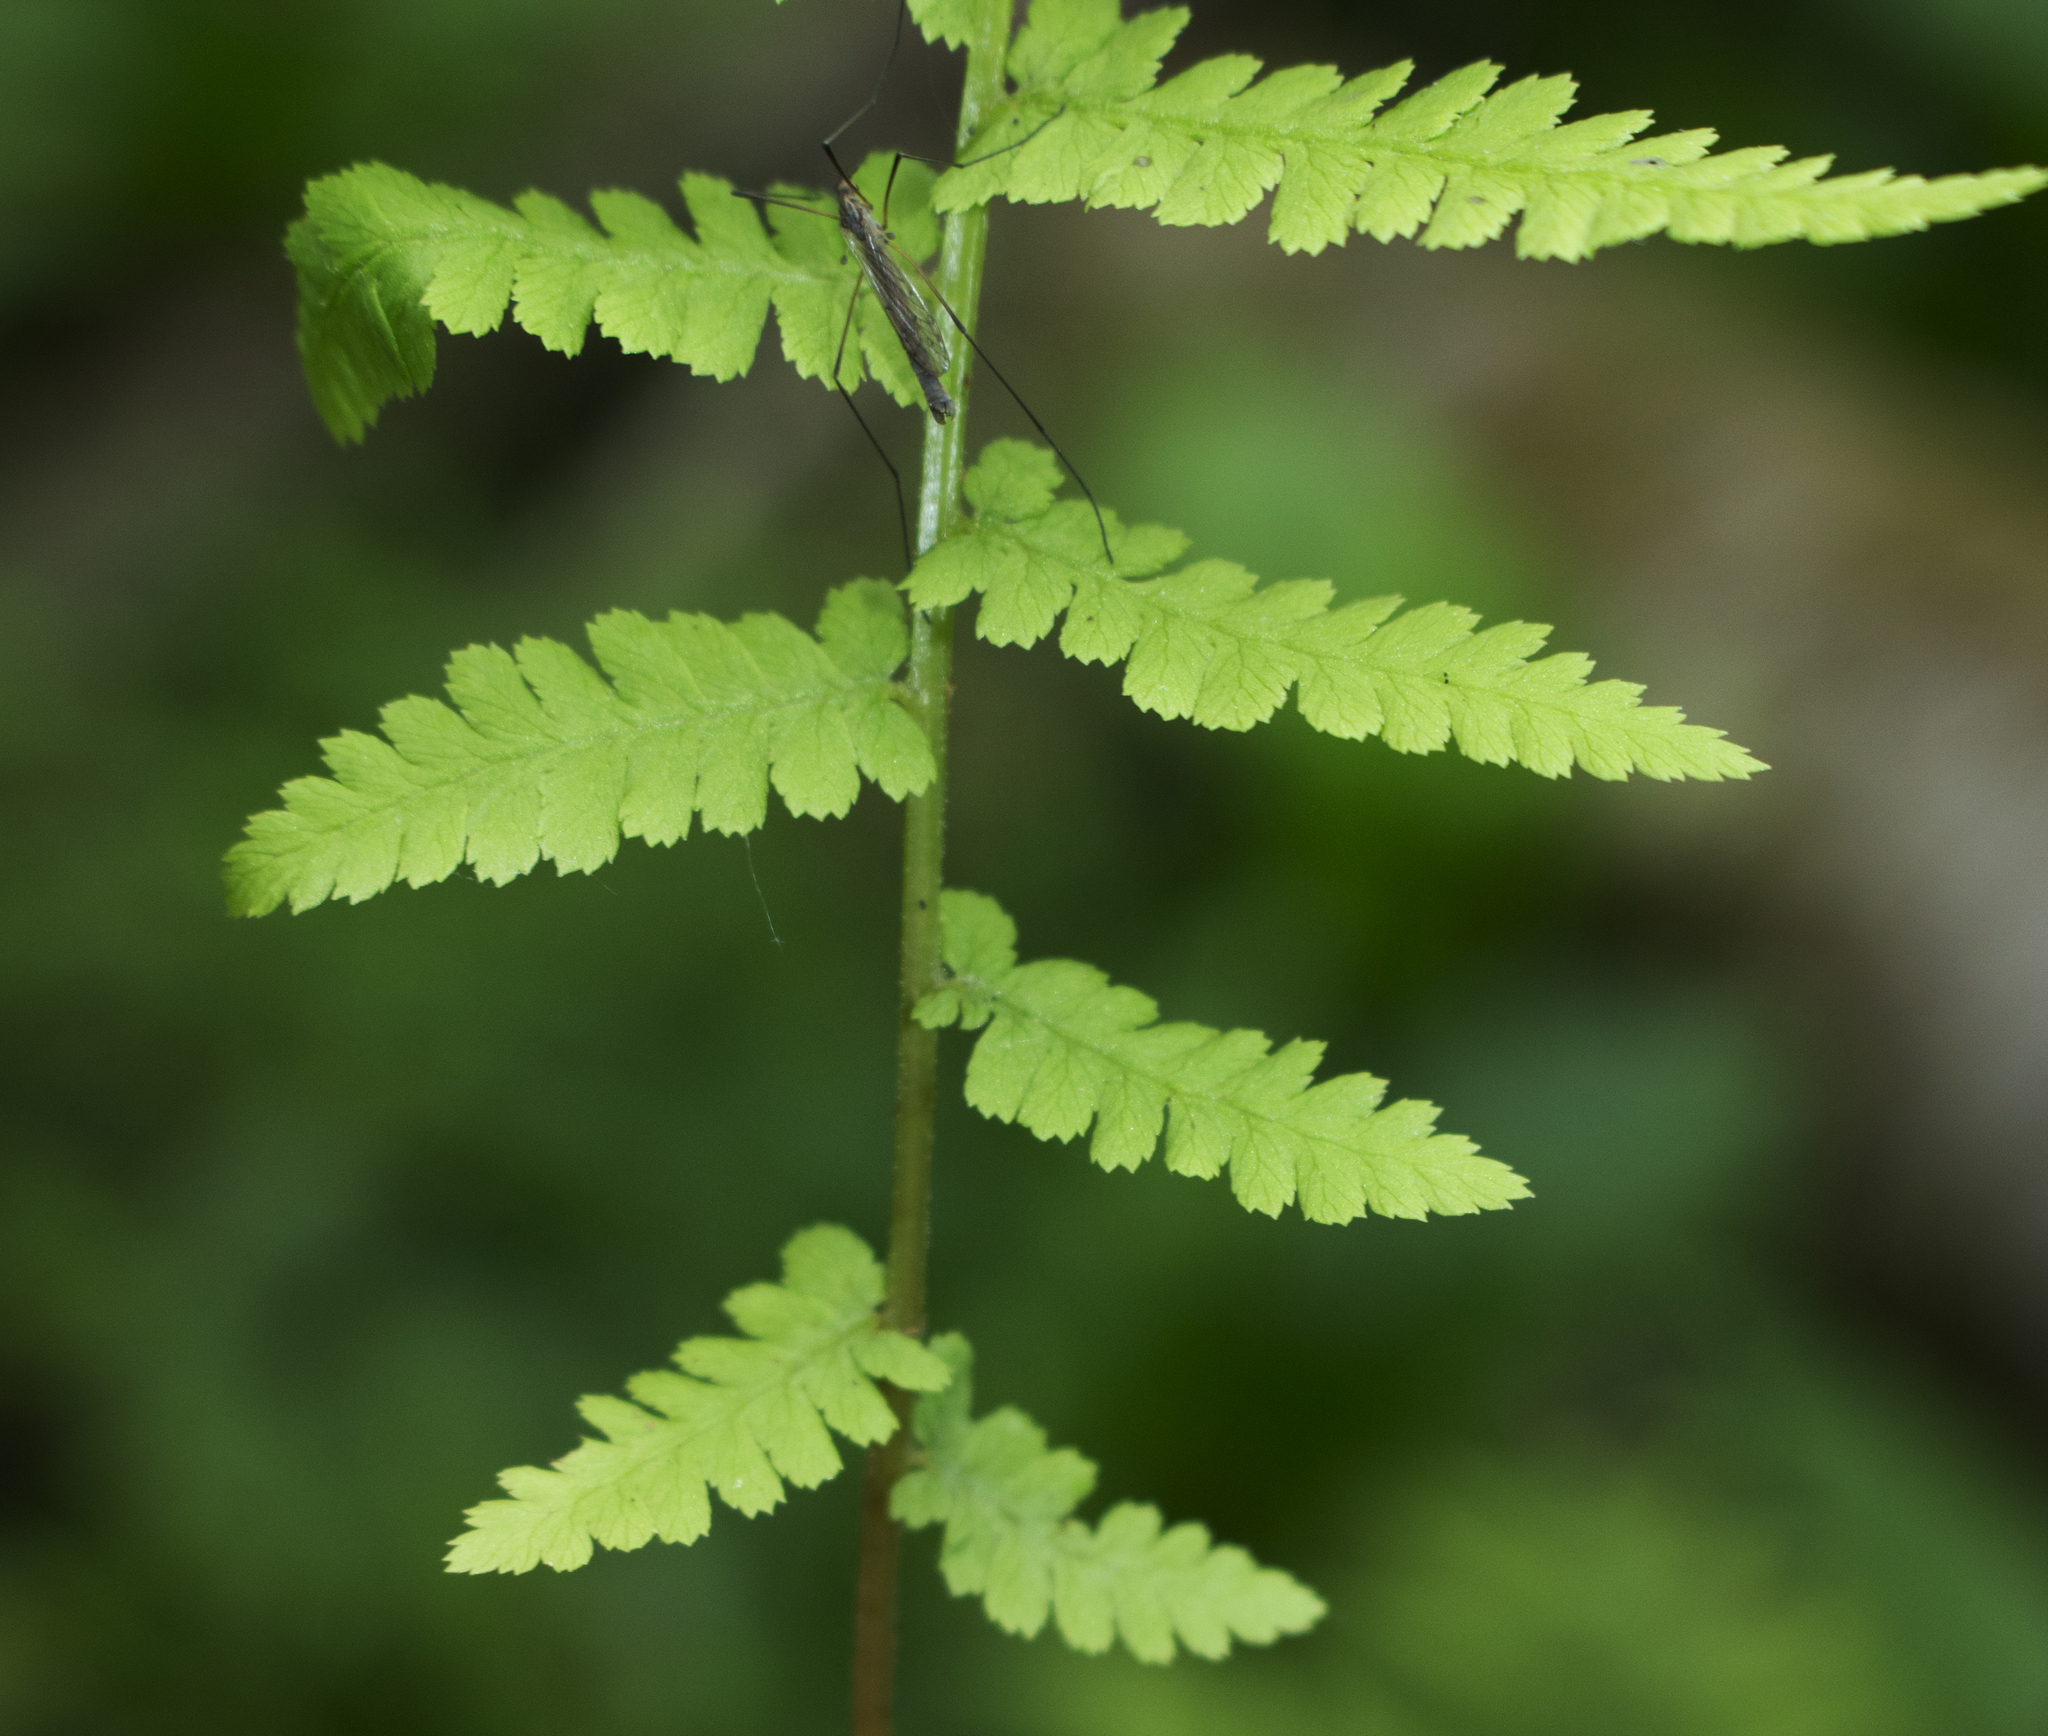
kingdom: Plantae
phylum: Tracheophyta
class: Polypodiopsida
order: Polypodiales
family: Athyriaceae
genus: Athyrium
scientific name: Athyrium angustum
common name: Northern lady fern
